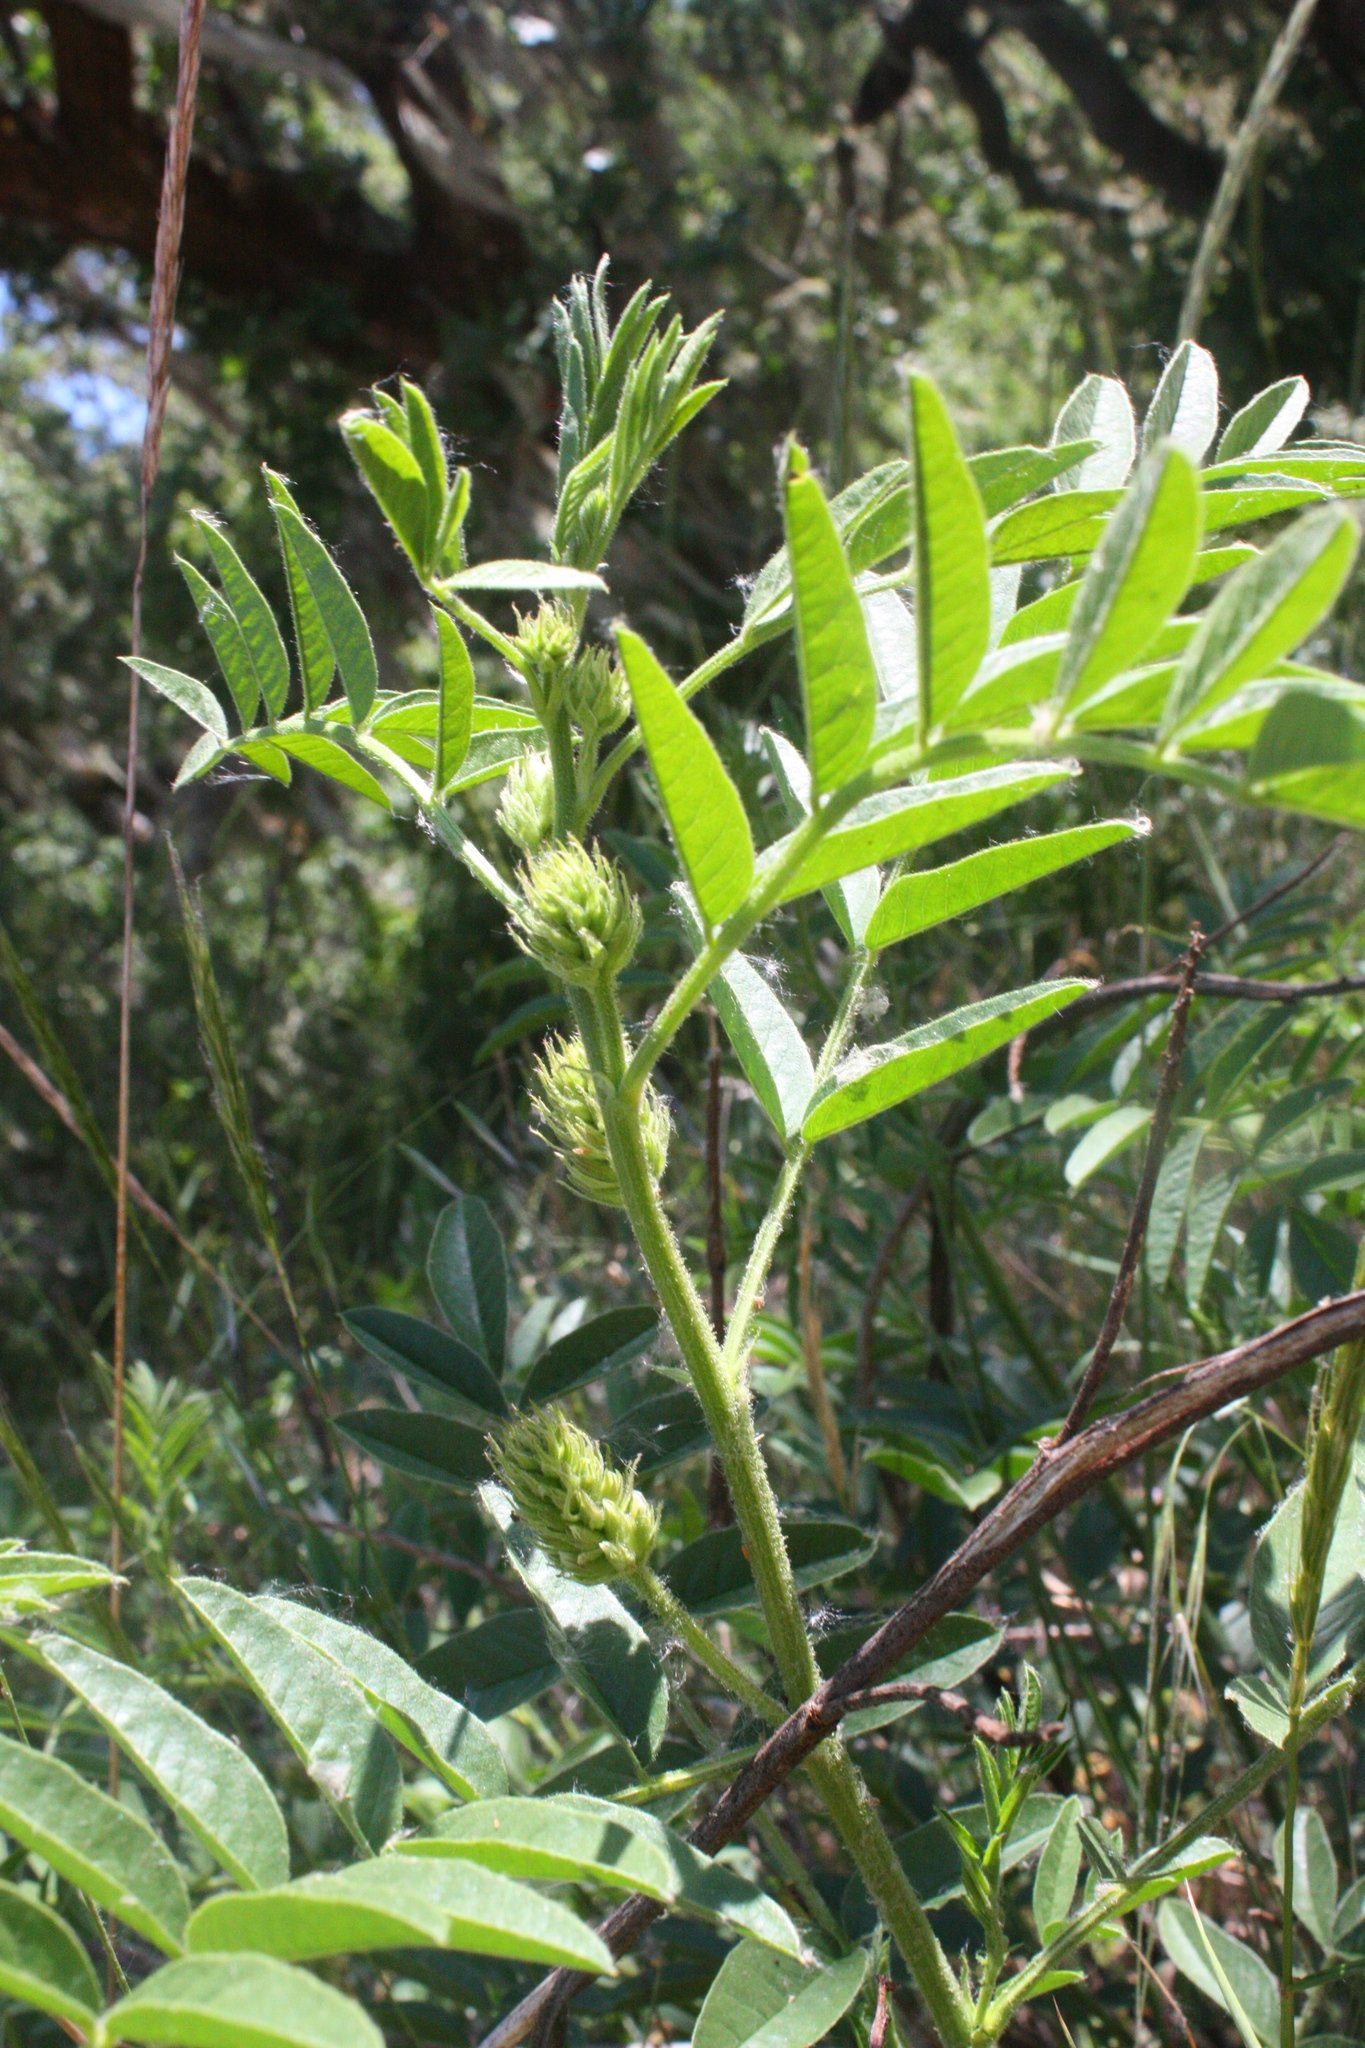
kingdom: Plantae
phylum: Tracheophyta
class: Magnoliopsida
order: Fabales
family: Fabaceae
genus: Glycyrrhiza
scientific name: Glycyrrhiza lepidota
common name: American liquorice
